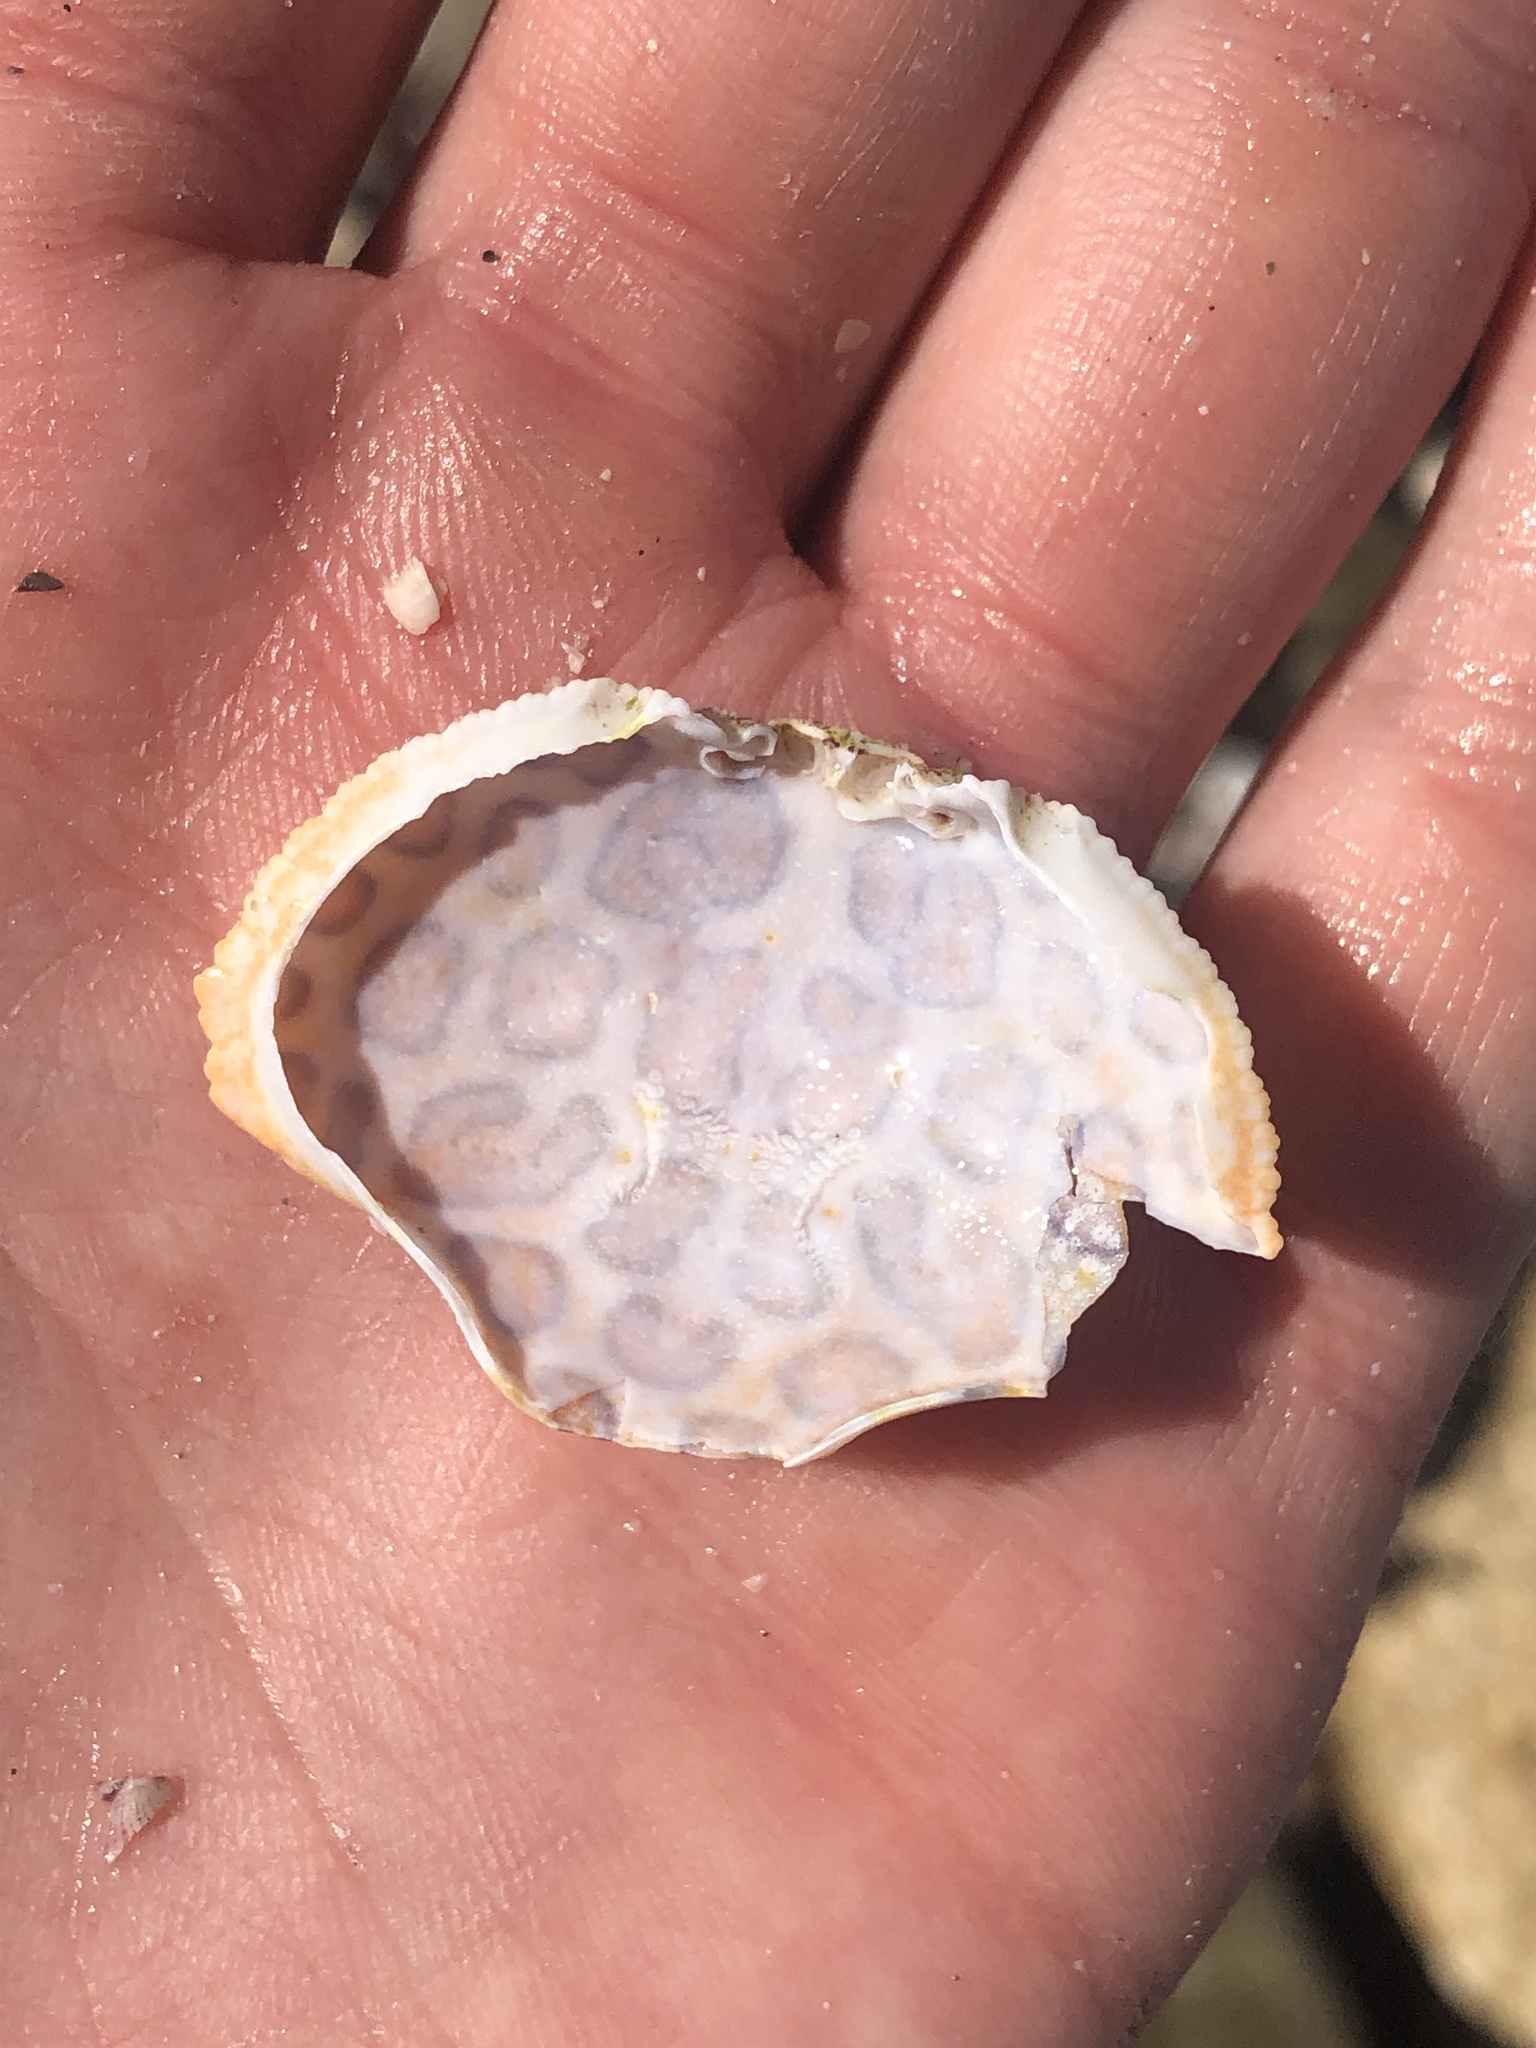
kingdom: Animalia
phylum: Arthropoda
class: Malacostraca
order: Decapoda
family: Aethridae
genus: Hepatus
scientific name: Hepatus epheliticus
